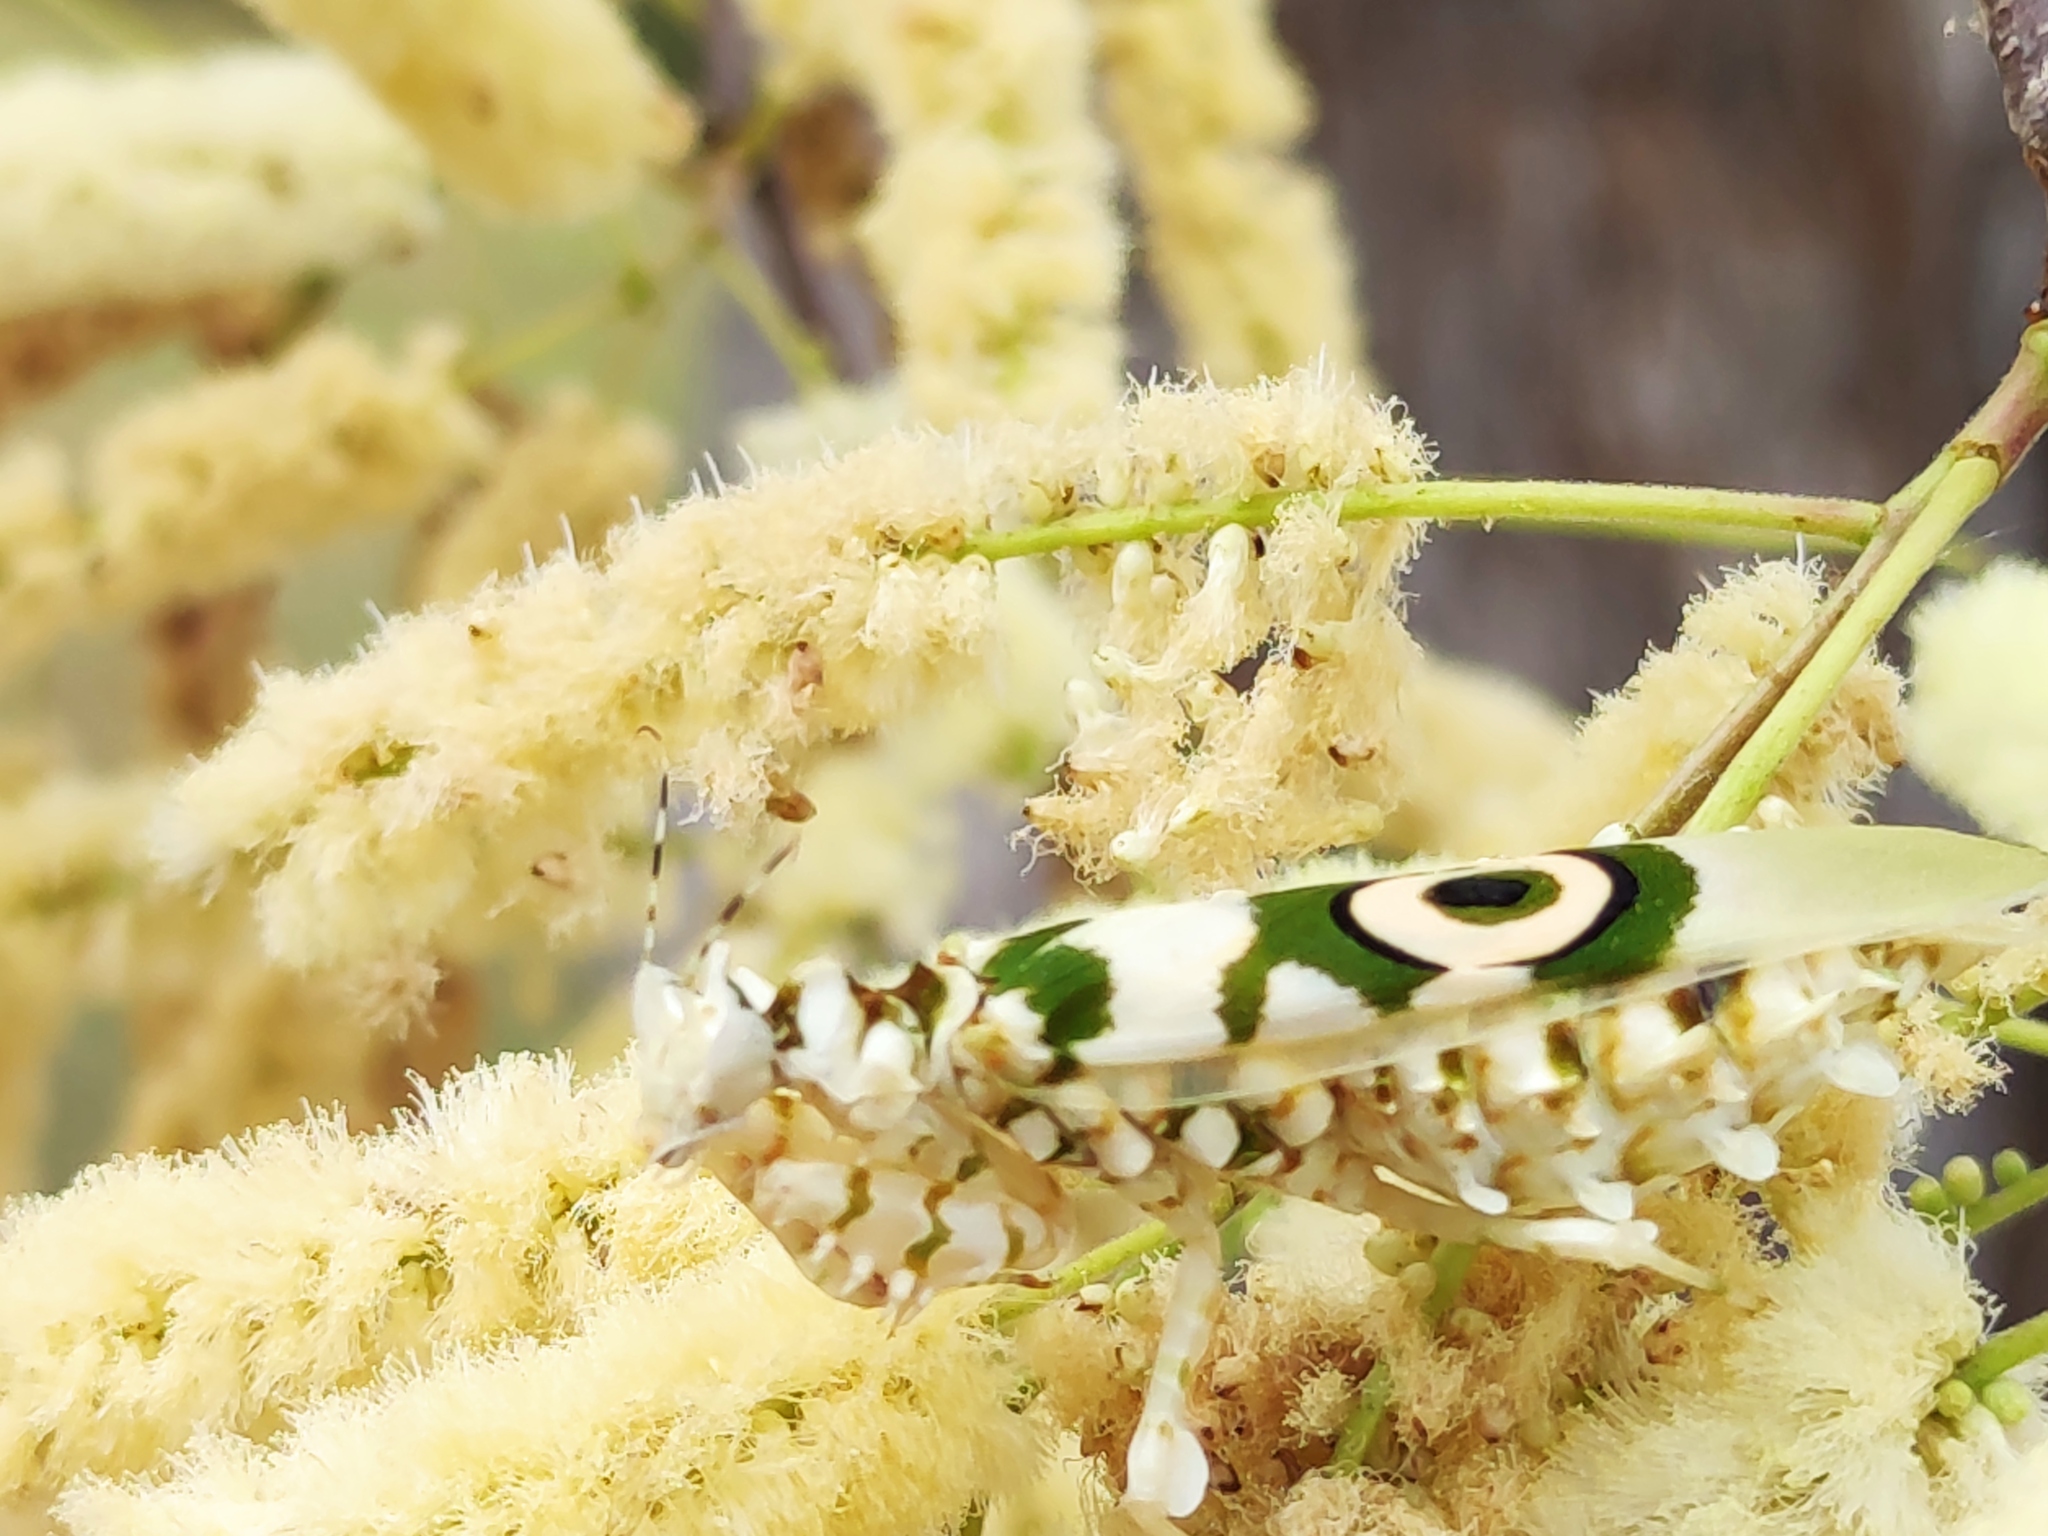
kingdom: Animalia
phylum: Arthropoda
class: Insecta
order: Mantodea
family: Hymenopodidae
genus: Pseudocreobotra
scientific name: Pseudocreobotra wahlbergi
